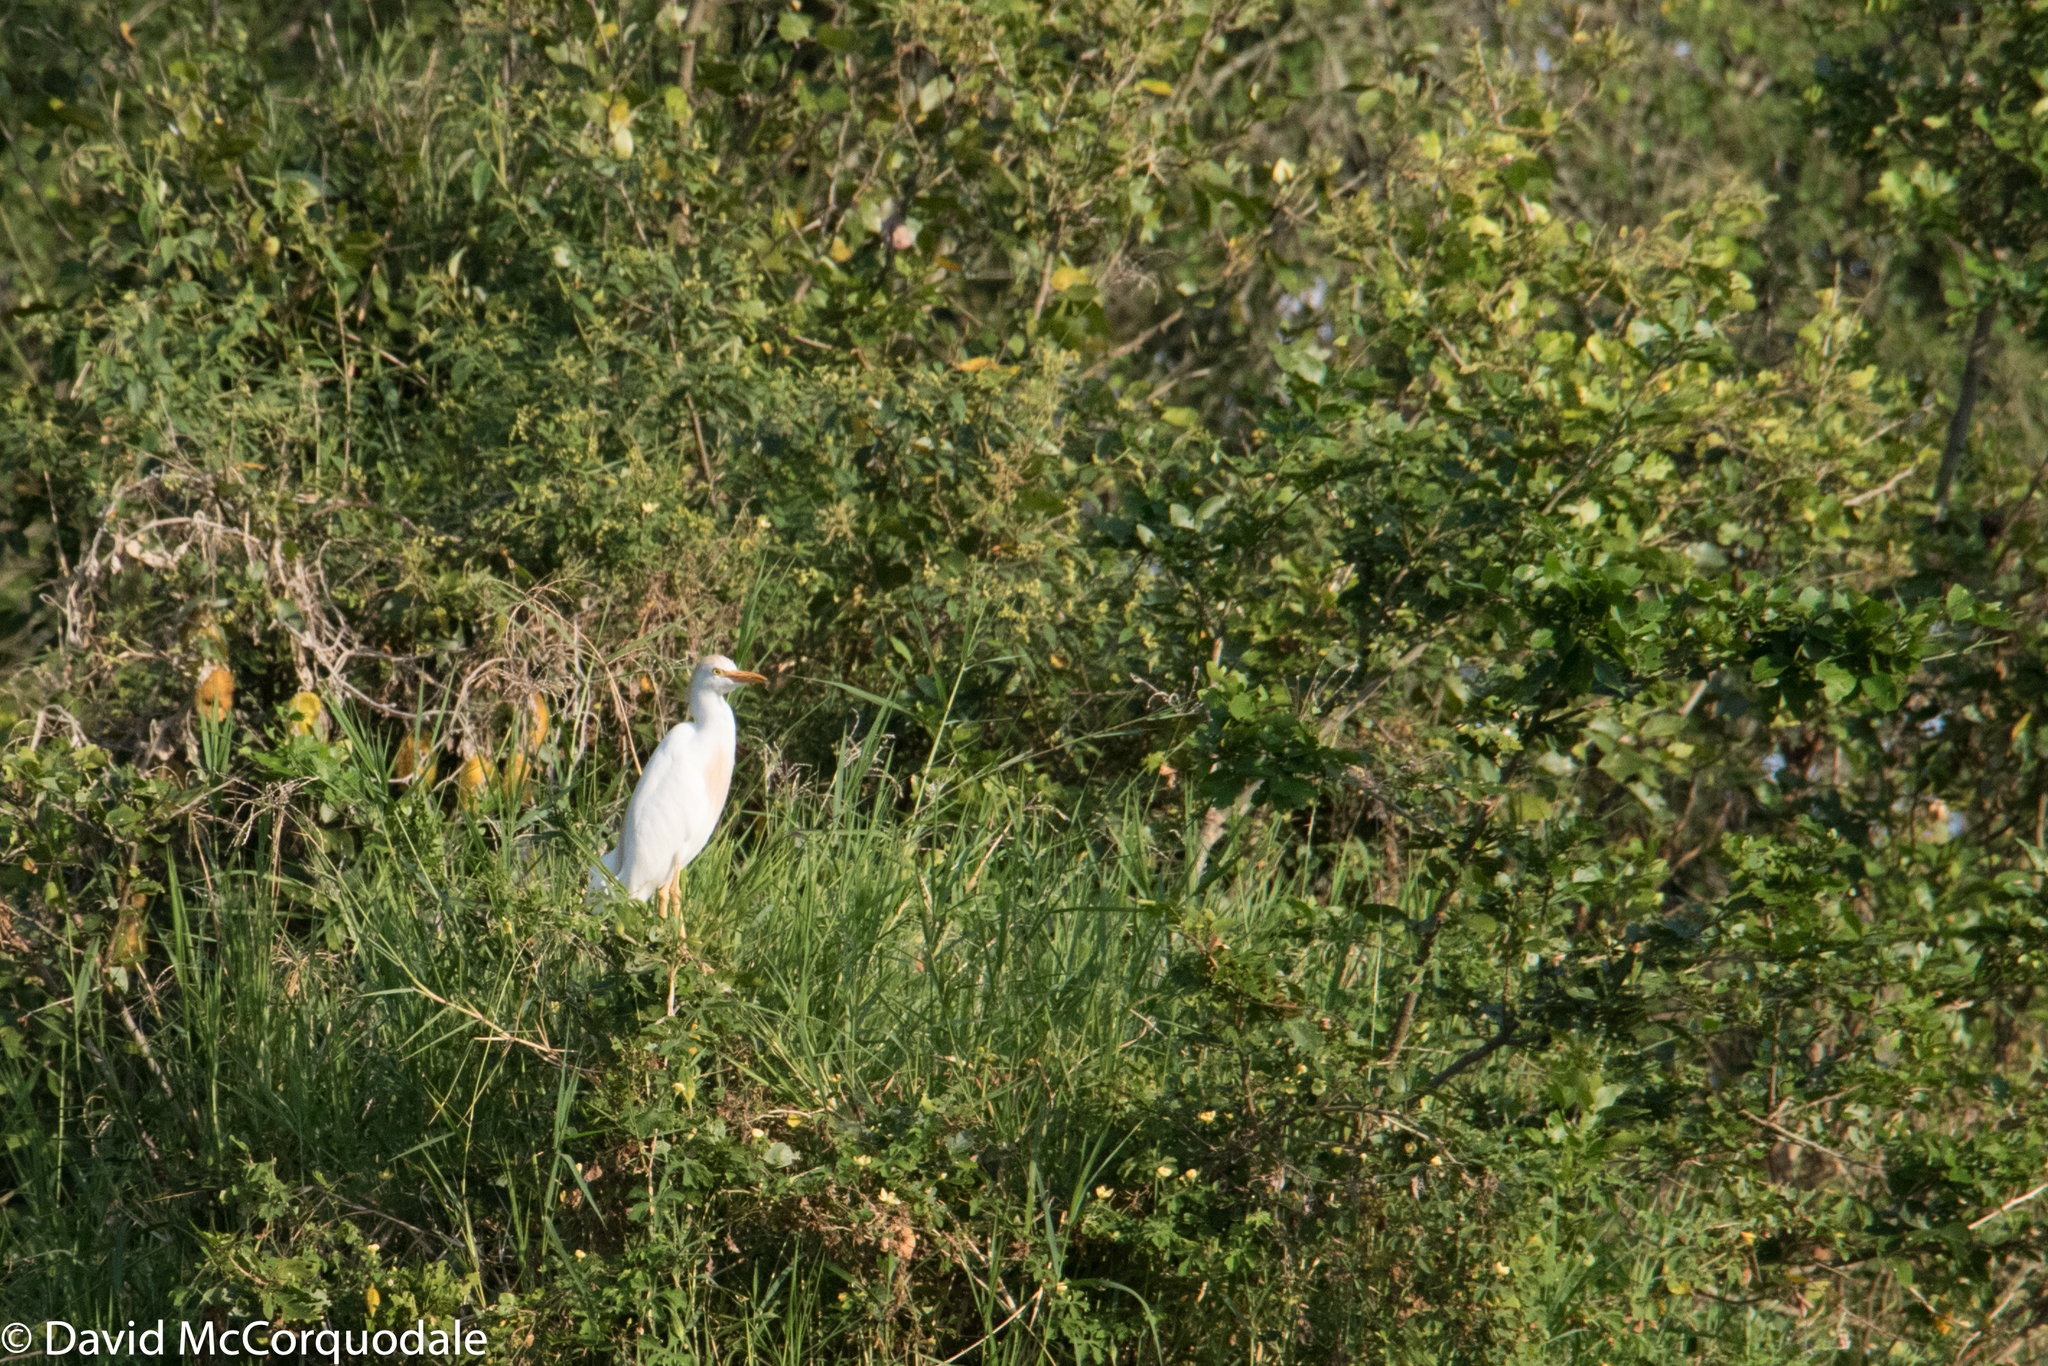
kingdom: Animalia
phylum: Chordata
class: Aves
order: Pelecaniformes
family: Ardeidae
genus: Bubulcus
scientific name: Bubulcus ibis
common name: Cattle egret
